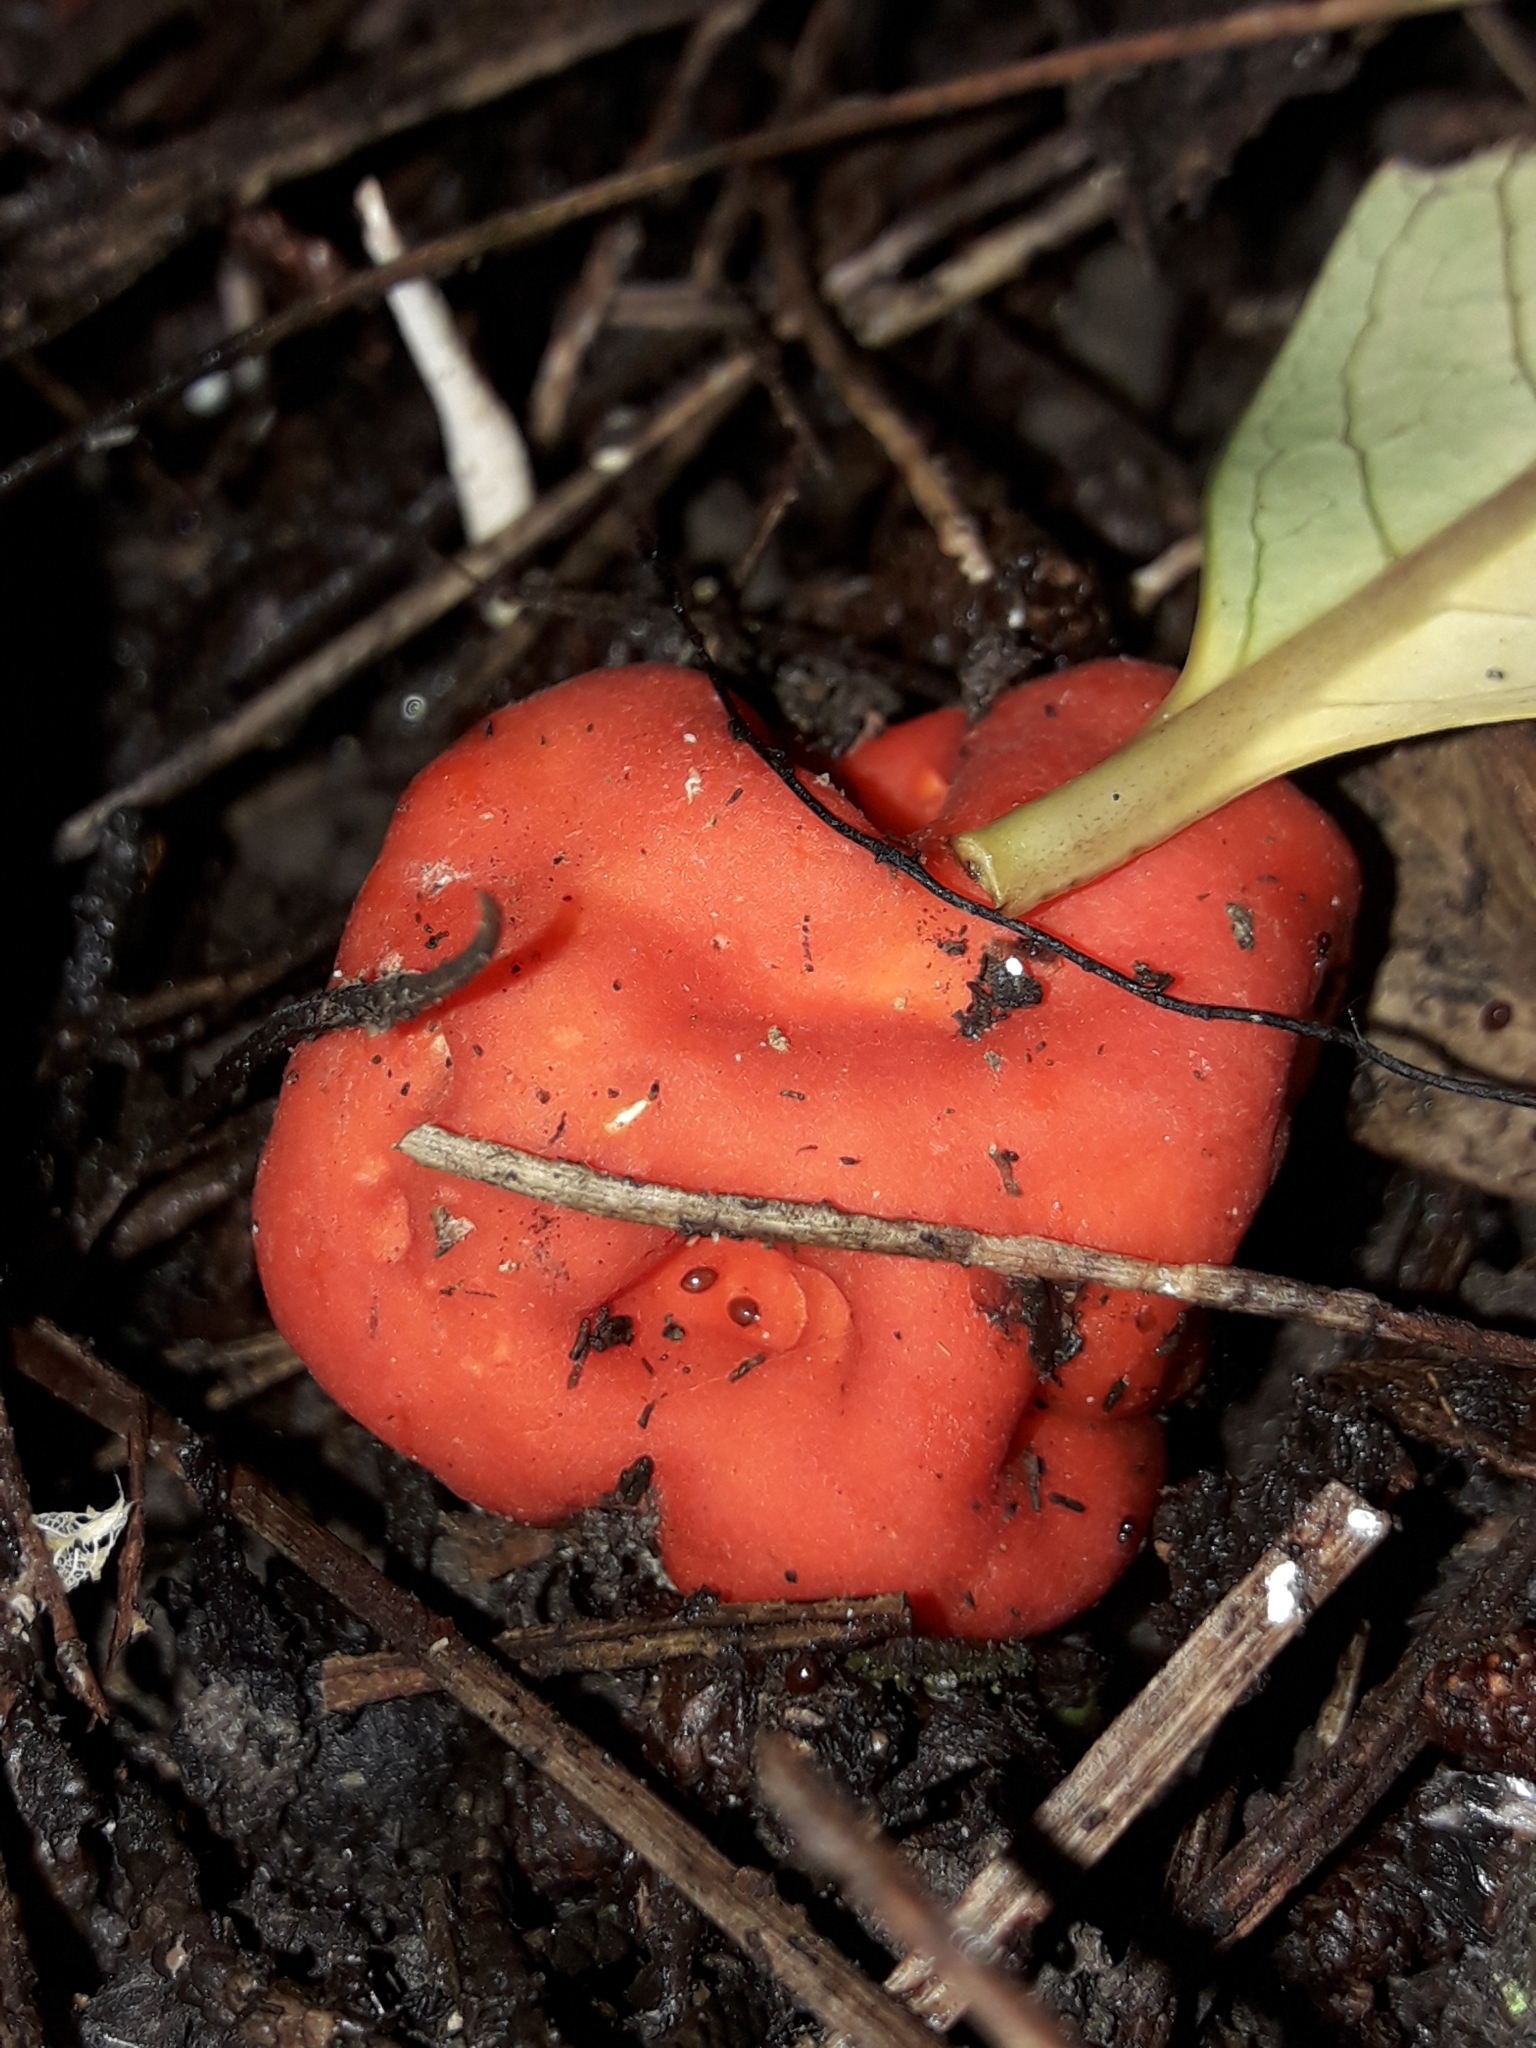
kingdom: Fungi
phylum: Ascomycota
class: Pezizomycetes
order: Pezizales
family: Pyronemataceae
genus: Paurocotylis
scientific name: Paurocotylis pila
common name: Scarlet berry truffle
